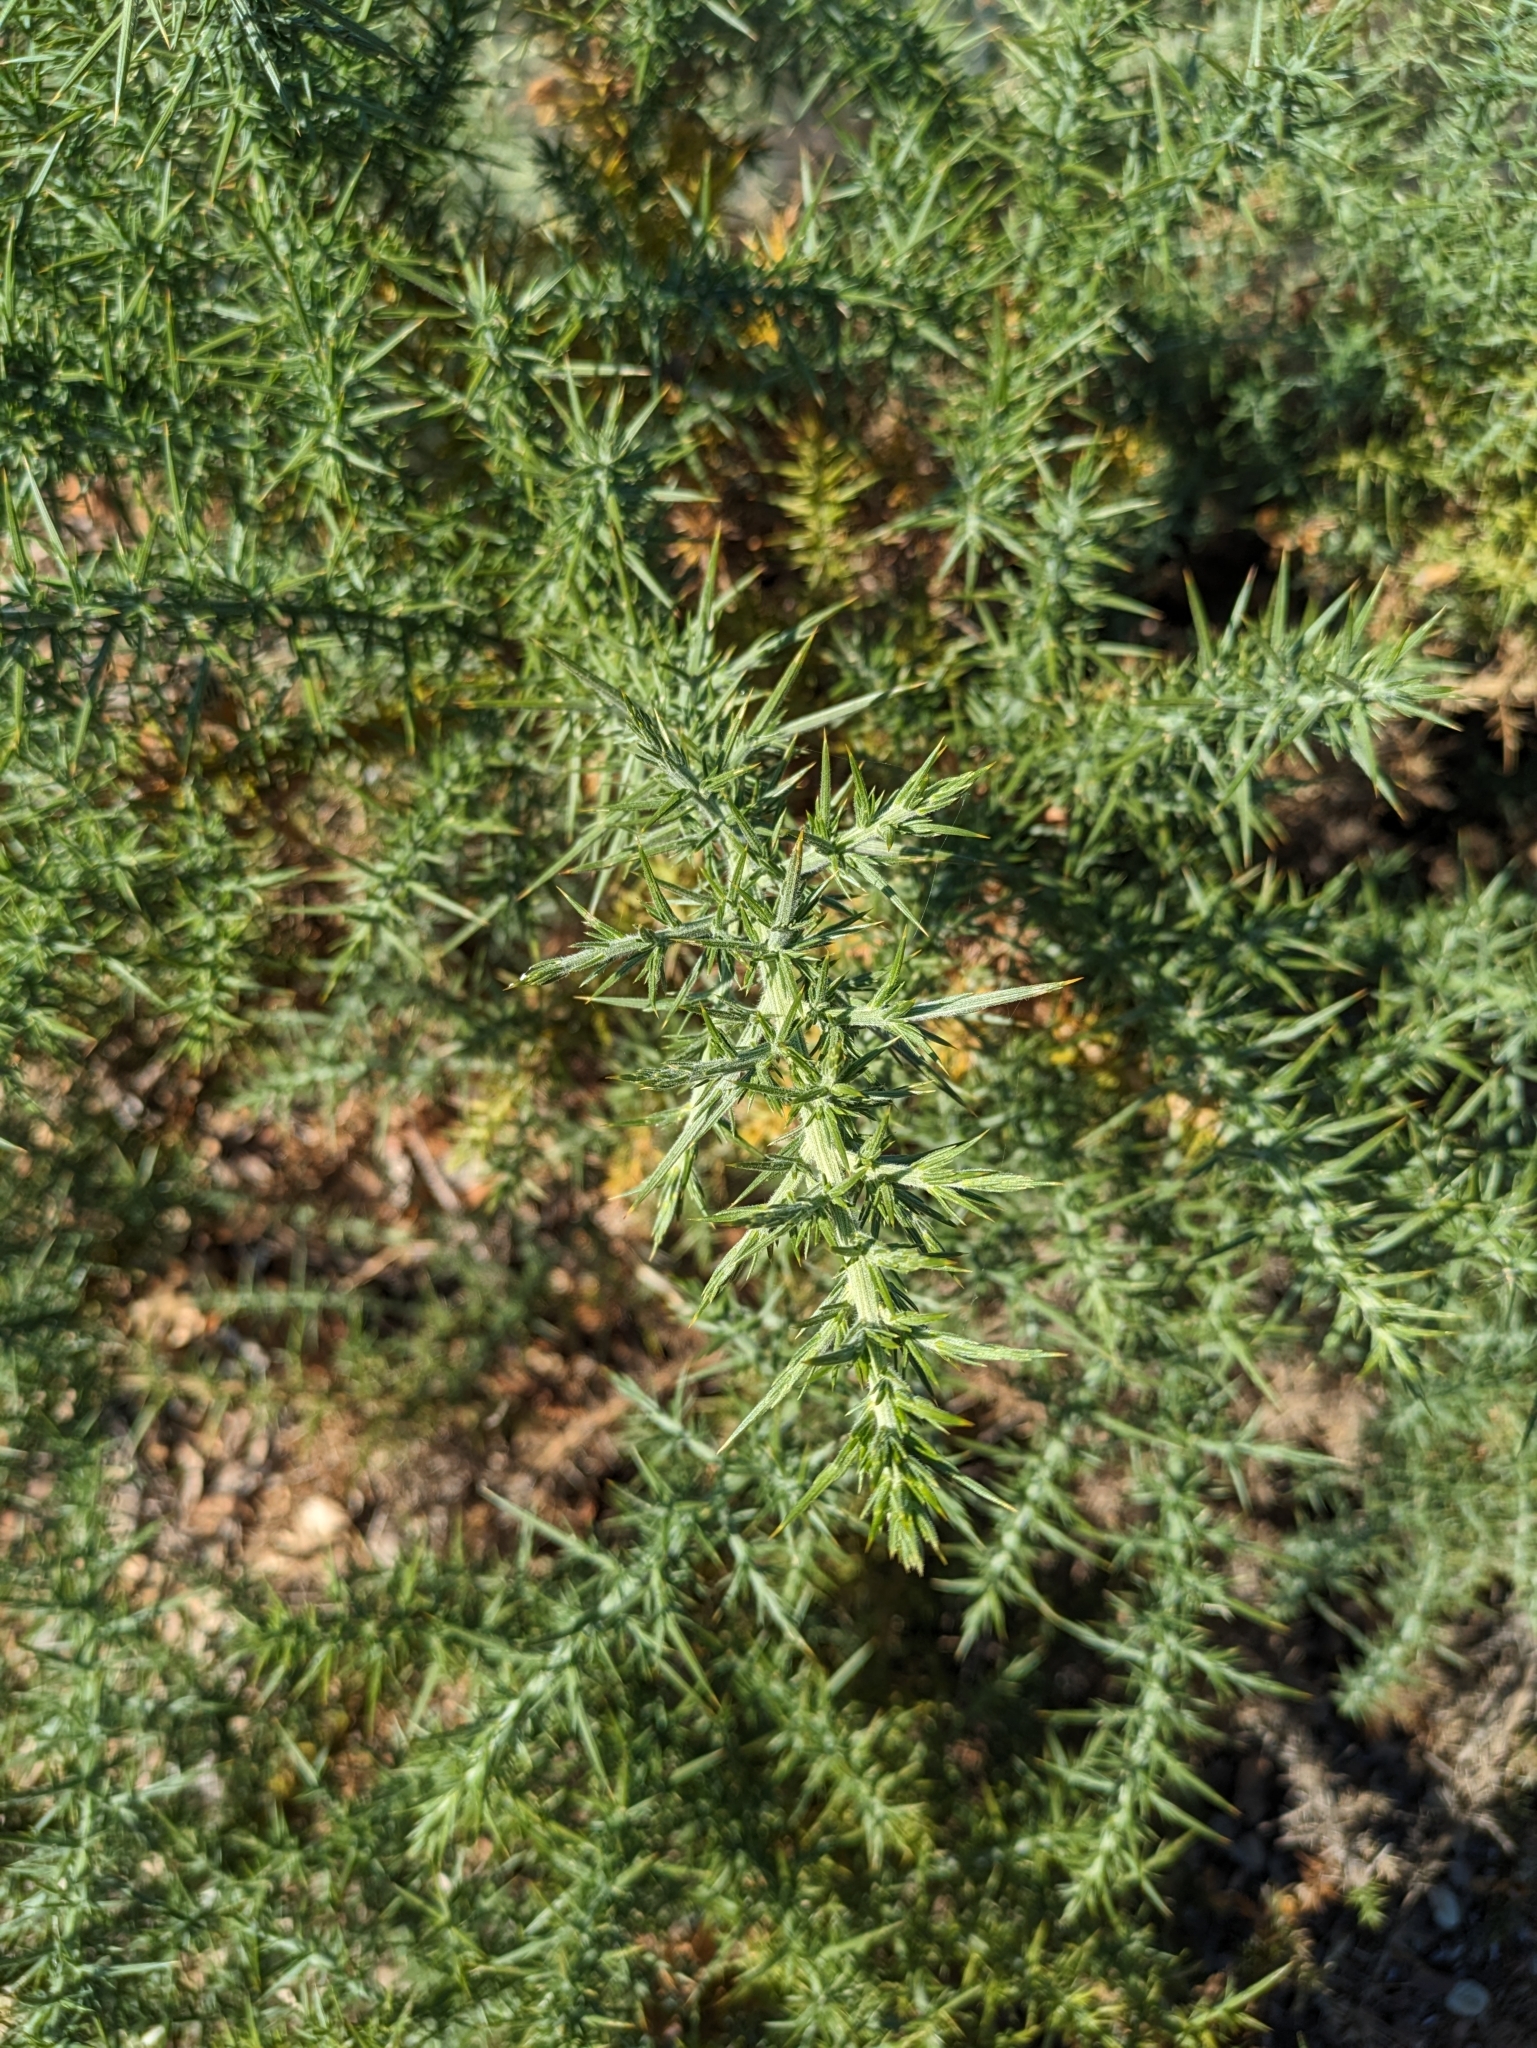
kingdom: Plantae
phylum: Tracheophyta
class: Magnoliopsida
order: Fabales
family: Fabaceae
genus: Ulex
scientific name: Ulex europaeus
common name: Common gorse
